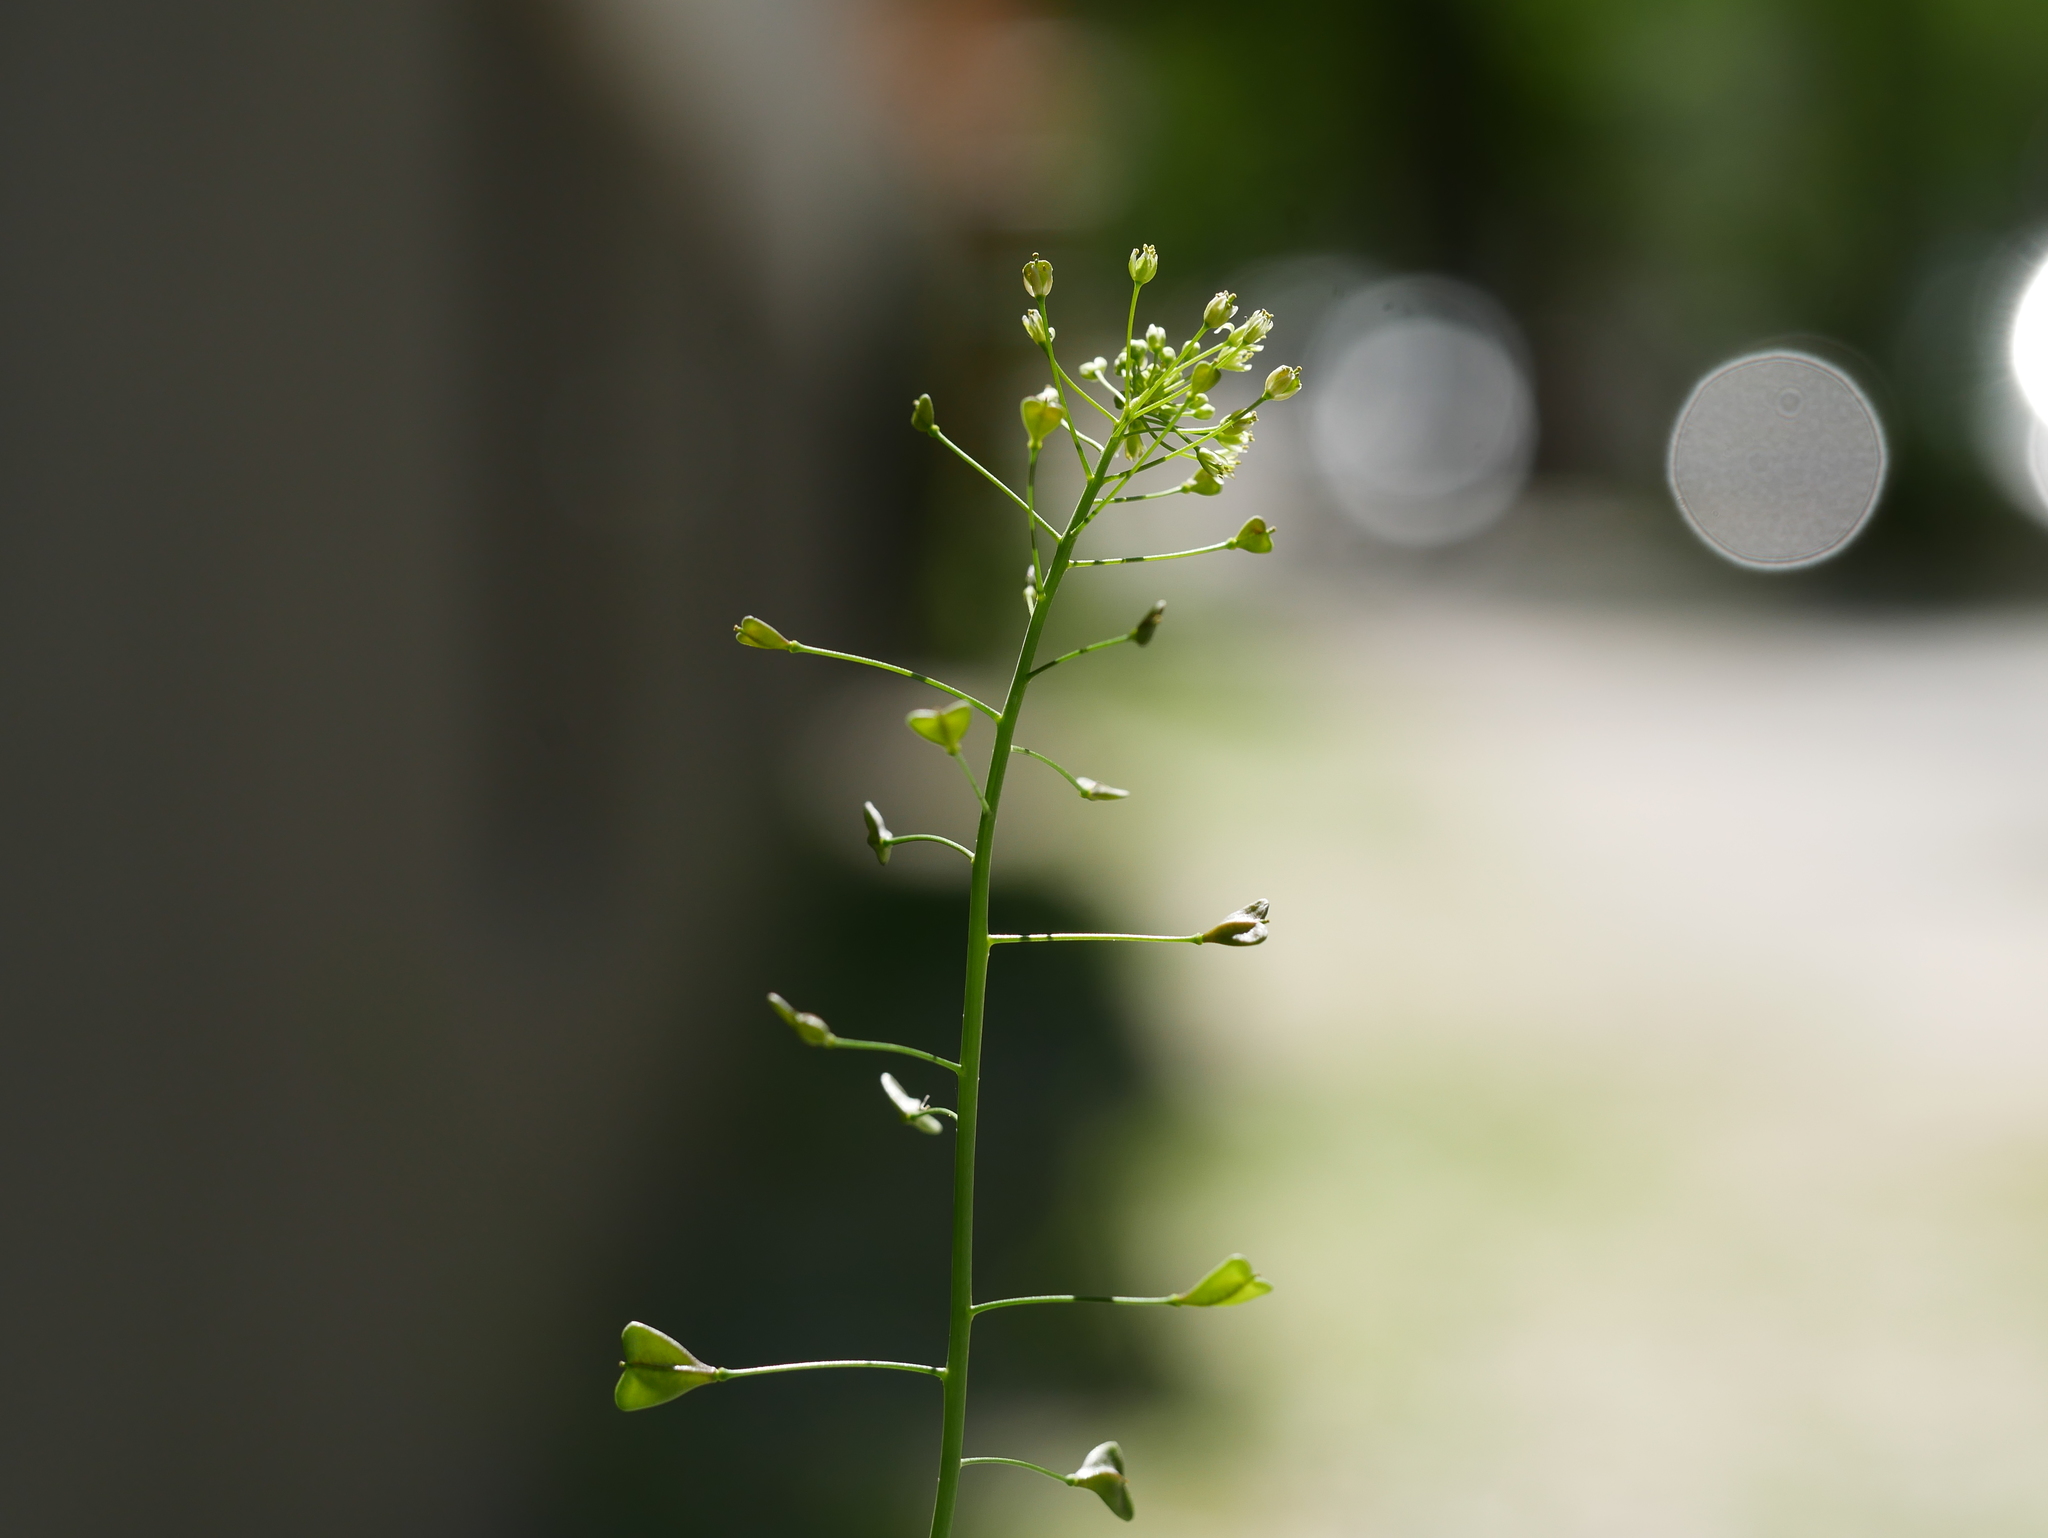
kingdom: Plantae
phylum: Tracheophyta
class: Magnoliopsida
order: Brassicales
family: Brassicaceae
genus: Capsella
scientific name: Capsella bursa-pastoris
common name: Shepherd's purse
